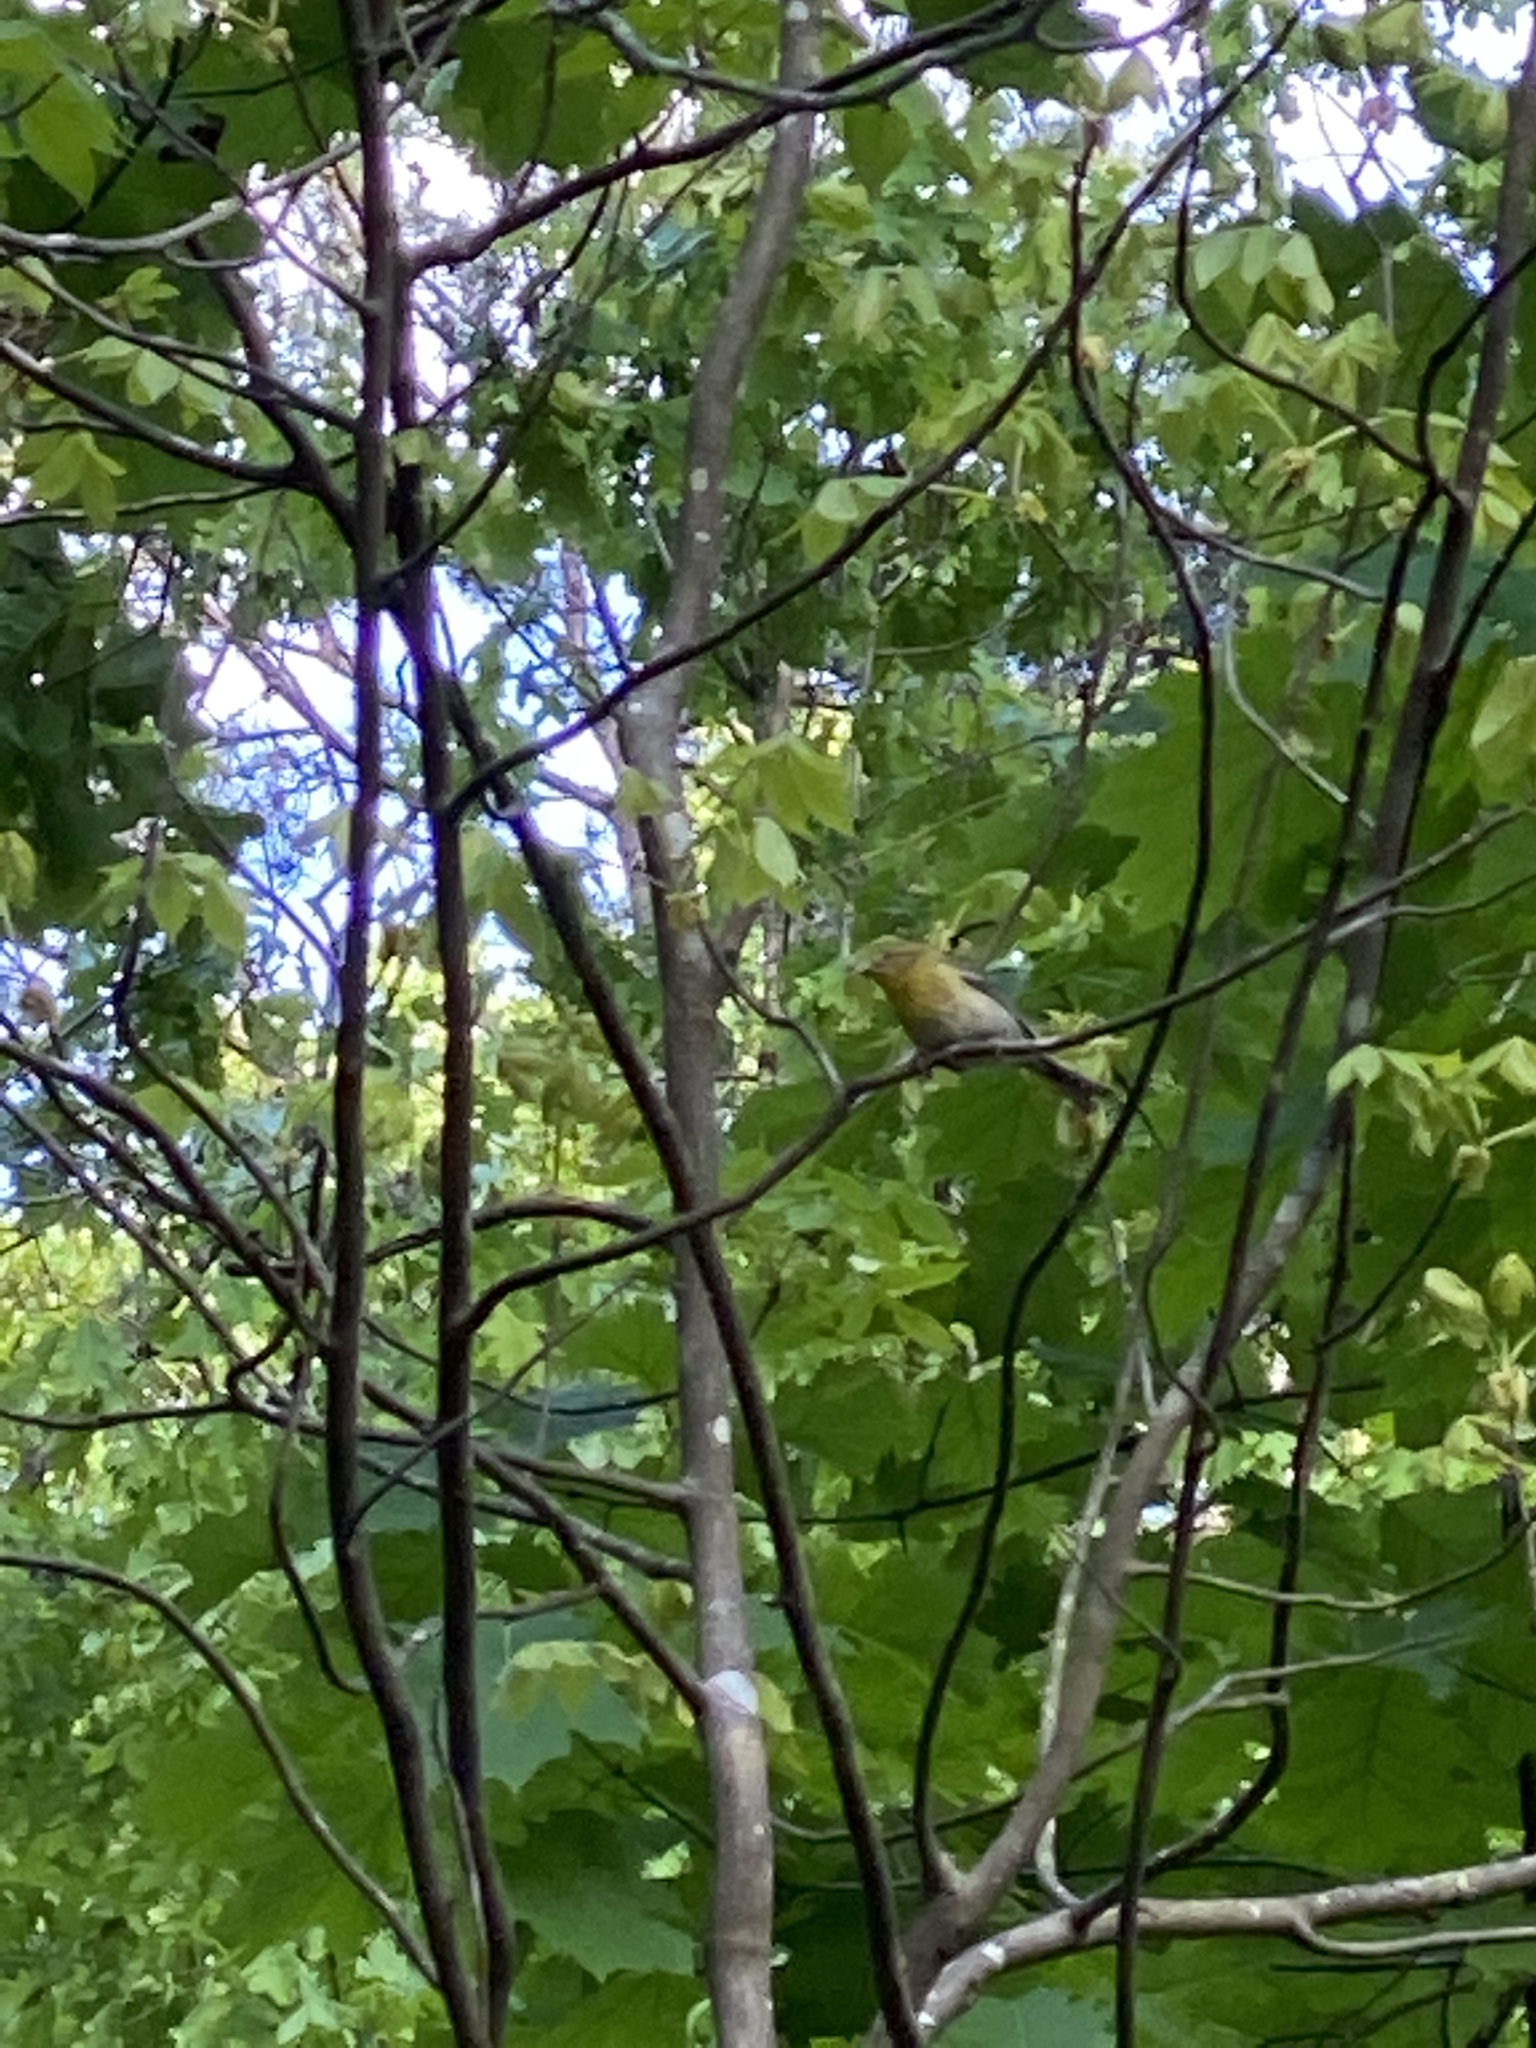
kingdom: Animalia
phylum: Chordata
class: Aves
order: Passeriformes
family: Parulidae
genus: Setophaga
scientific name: Setophaga pinus
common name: Pine warbler
